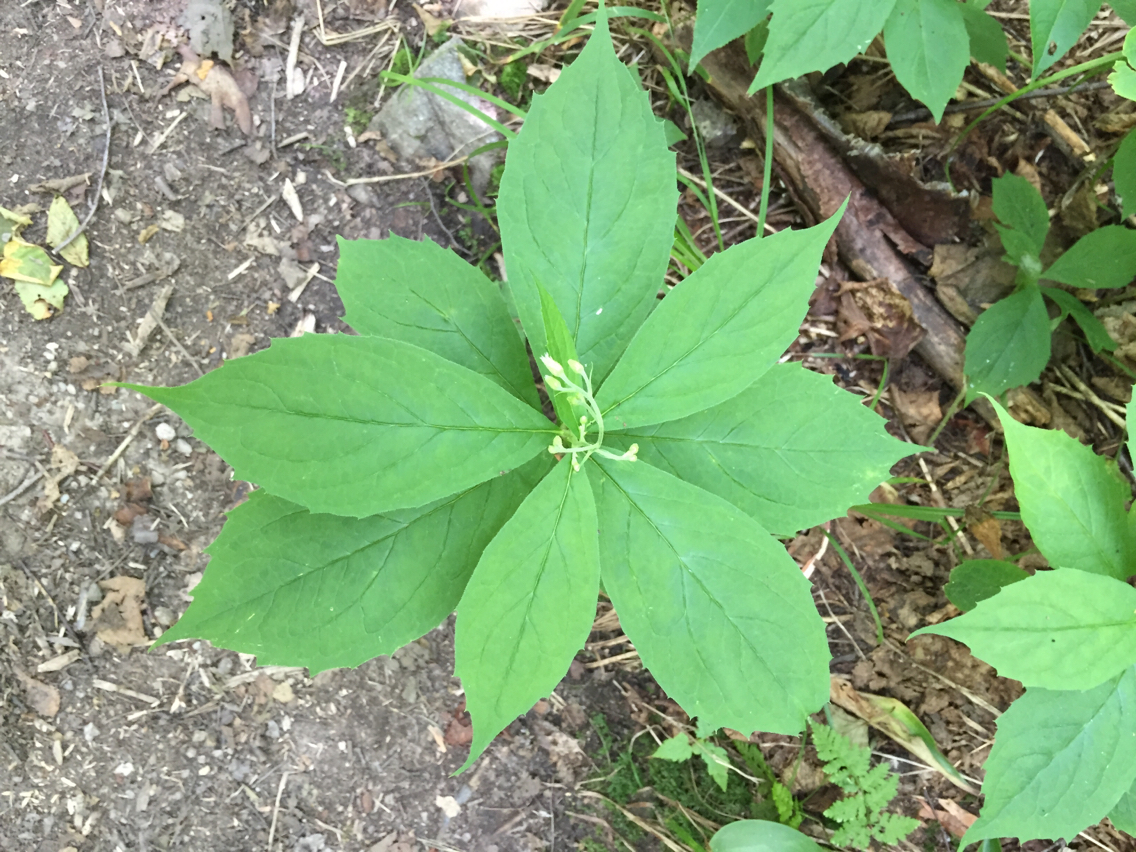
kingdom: Plantae
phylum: Tracheophyta
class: Magnoliopsida
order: Asterales
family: Asteraceae
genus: Oclemena
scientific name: Oclemena acuminata
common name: Mountain aster
